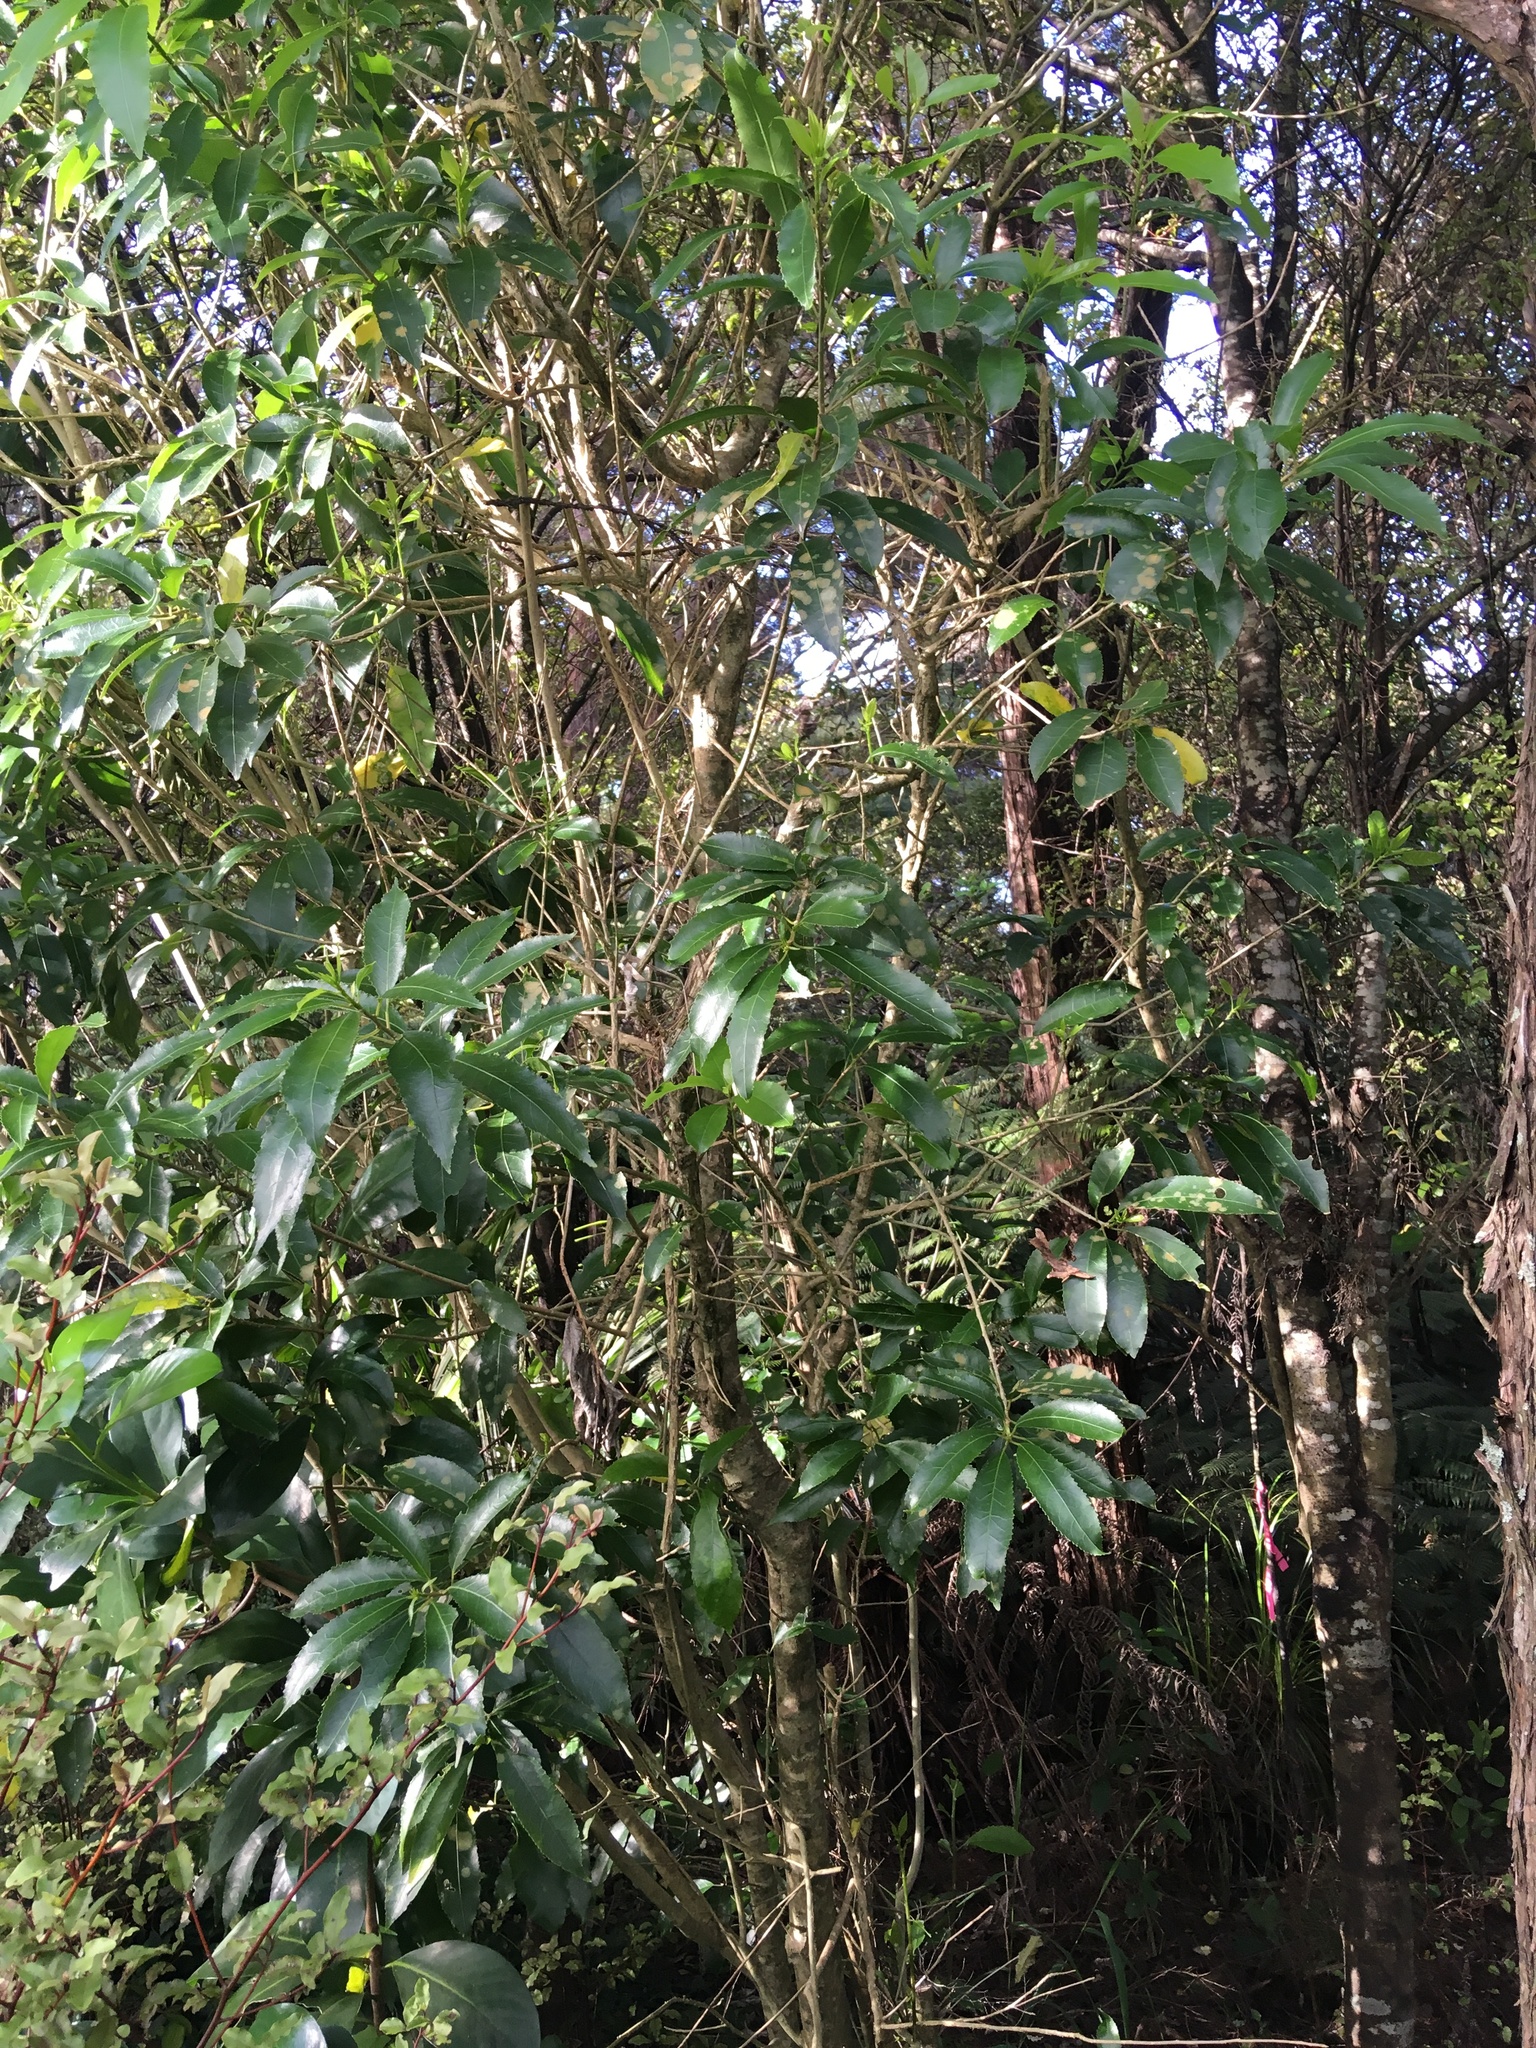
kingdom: Plantae
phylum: Tracheophyta
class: Magnoliopsida
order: Malpighiales
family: Violaceae
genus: Melicytus
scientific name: Melicytus ramiflorus
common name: Mahoe
